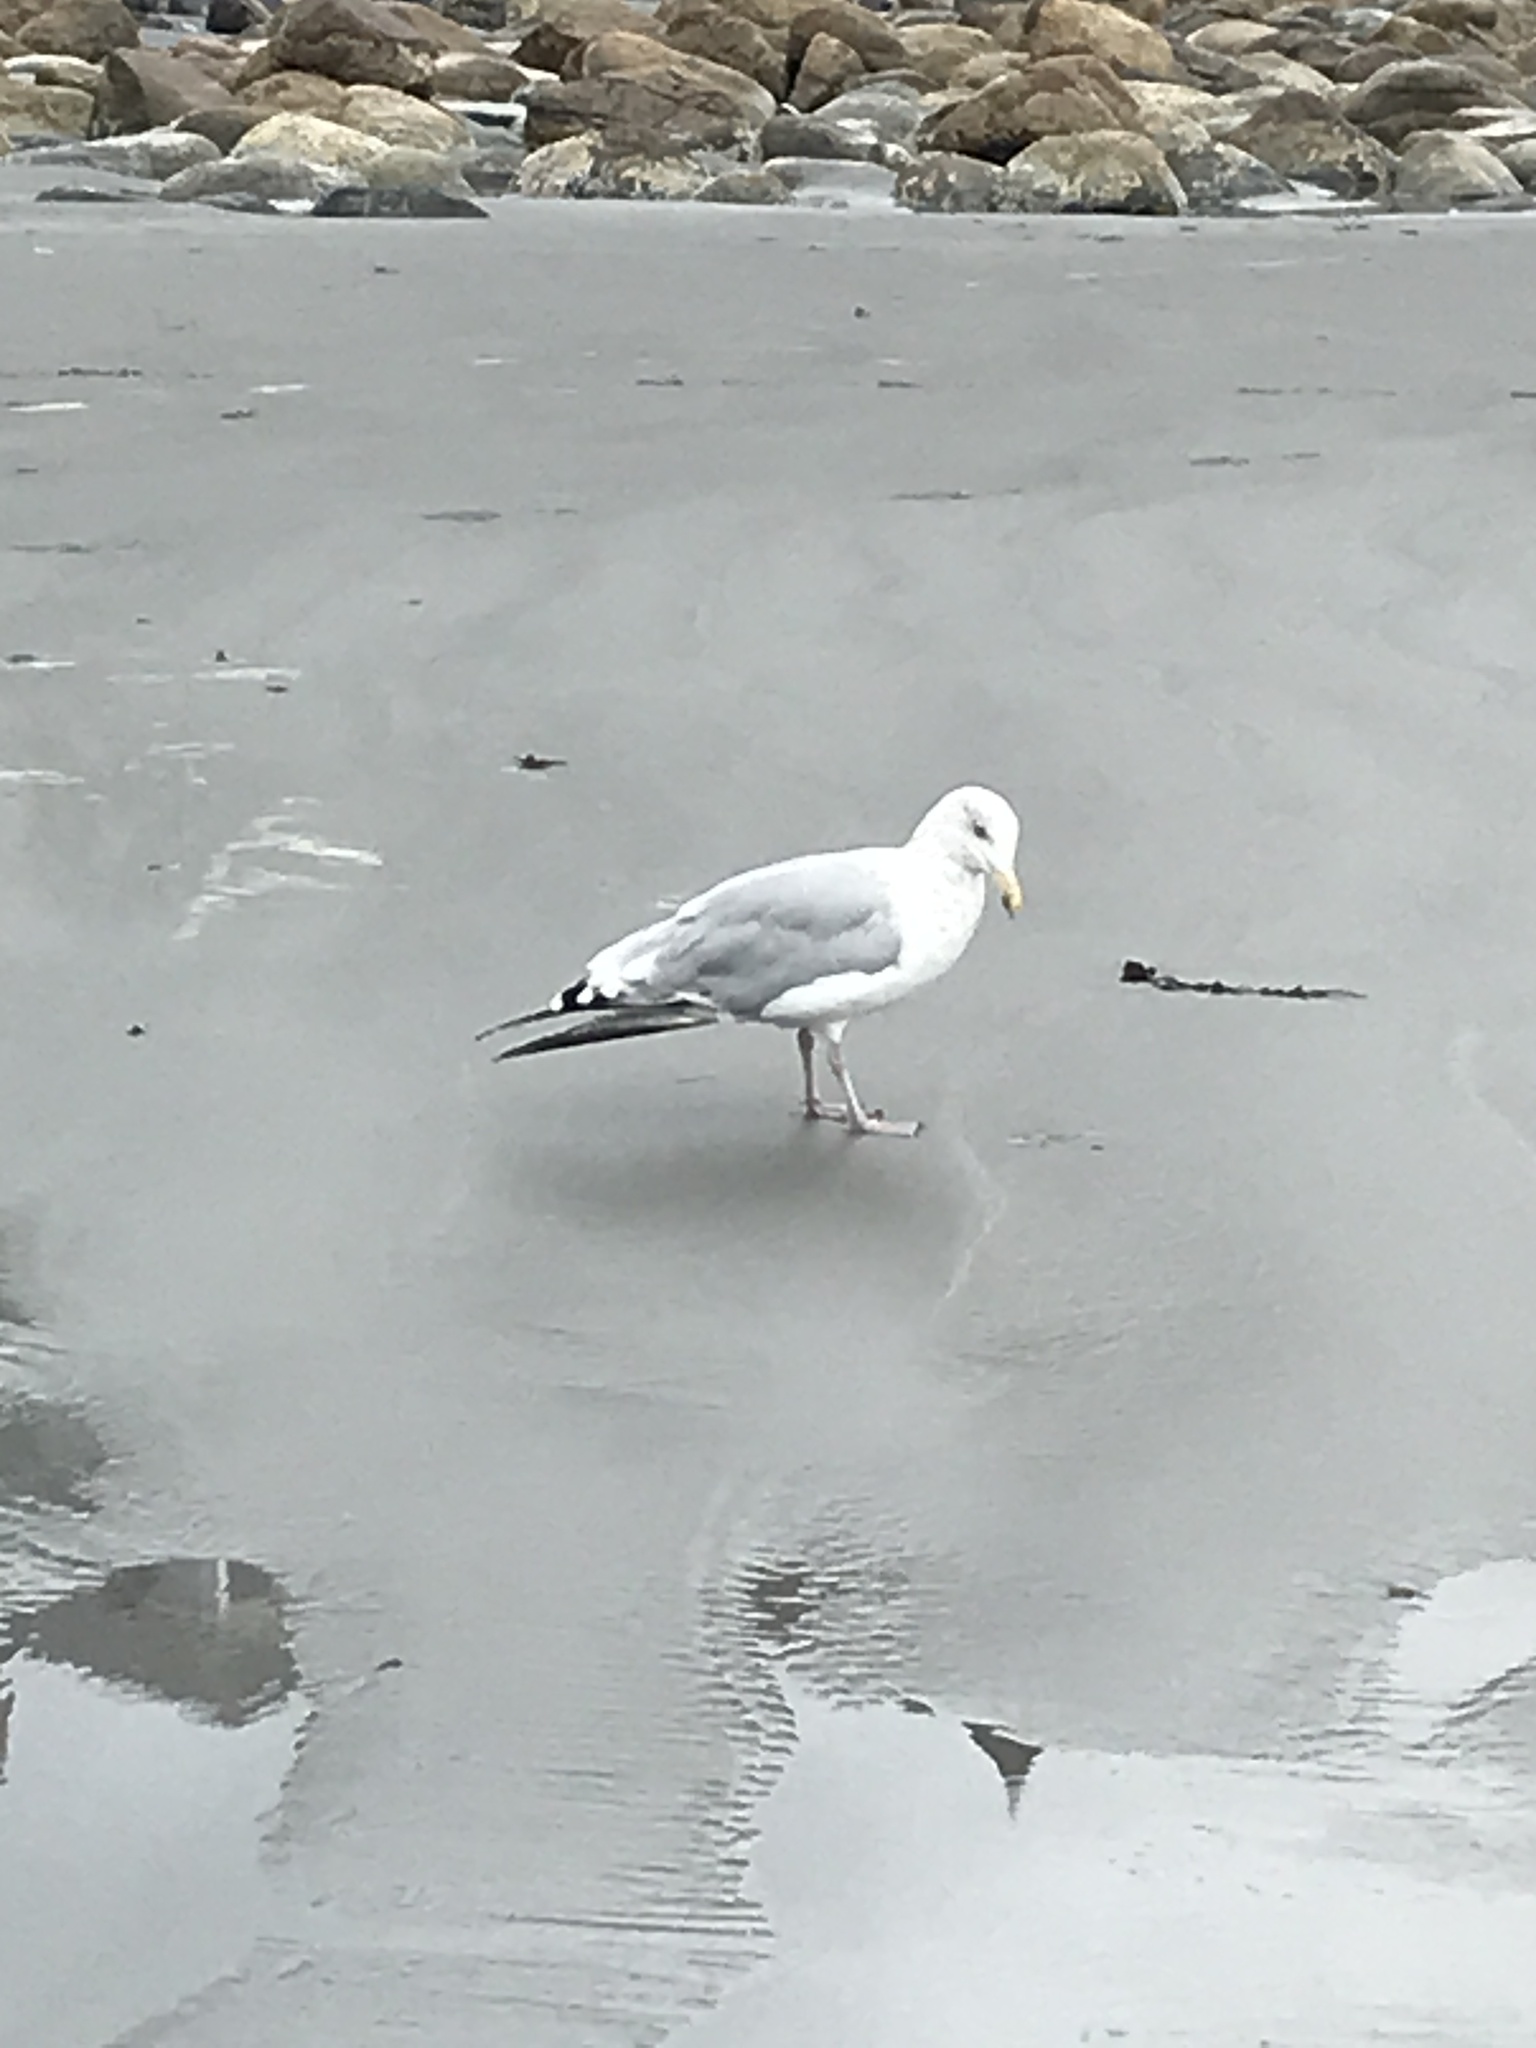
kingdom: Animalia
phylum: Chordata
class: Aves
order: Charadriiformes
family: Laridae
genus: Larus
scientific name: Larus argentatus
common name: Herring gull
